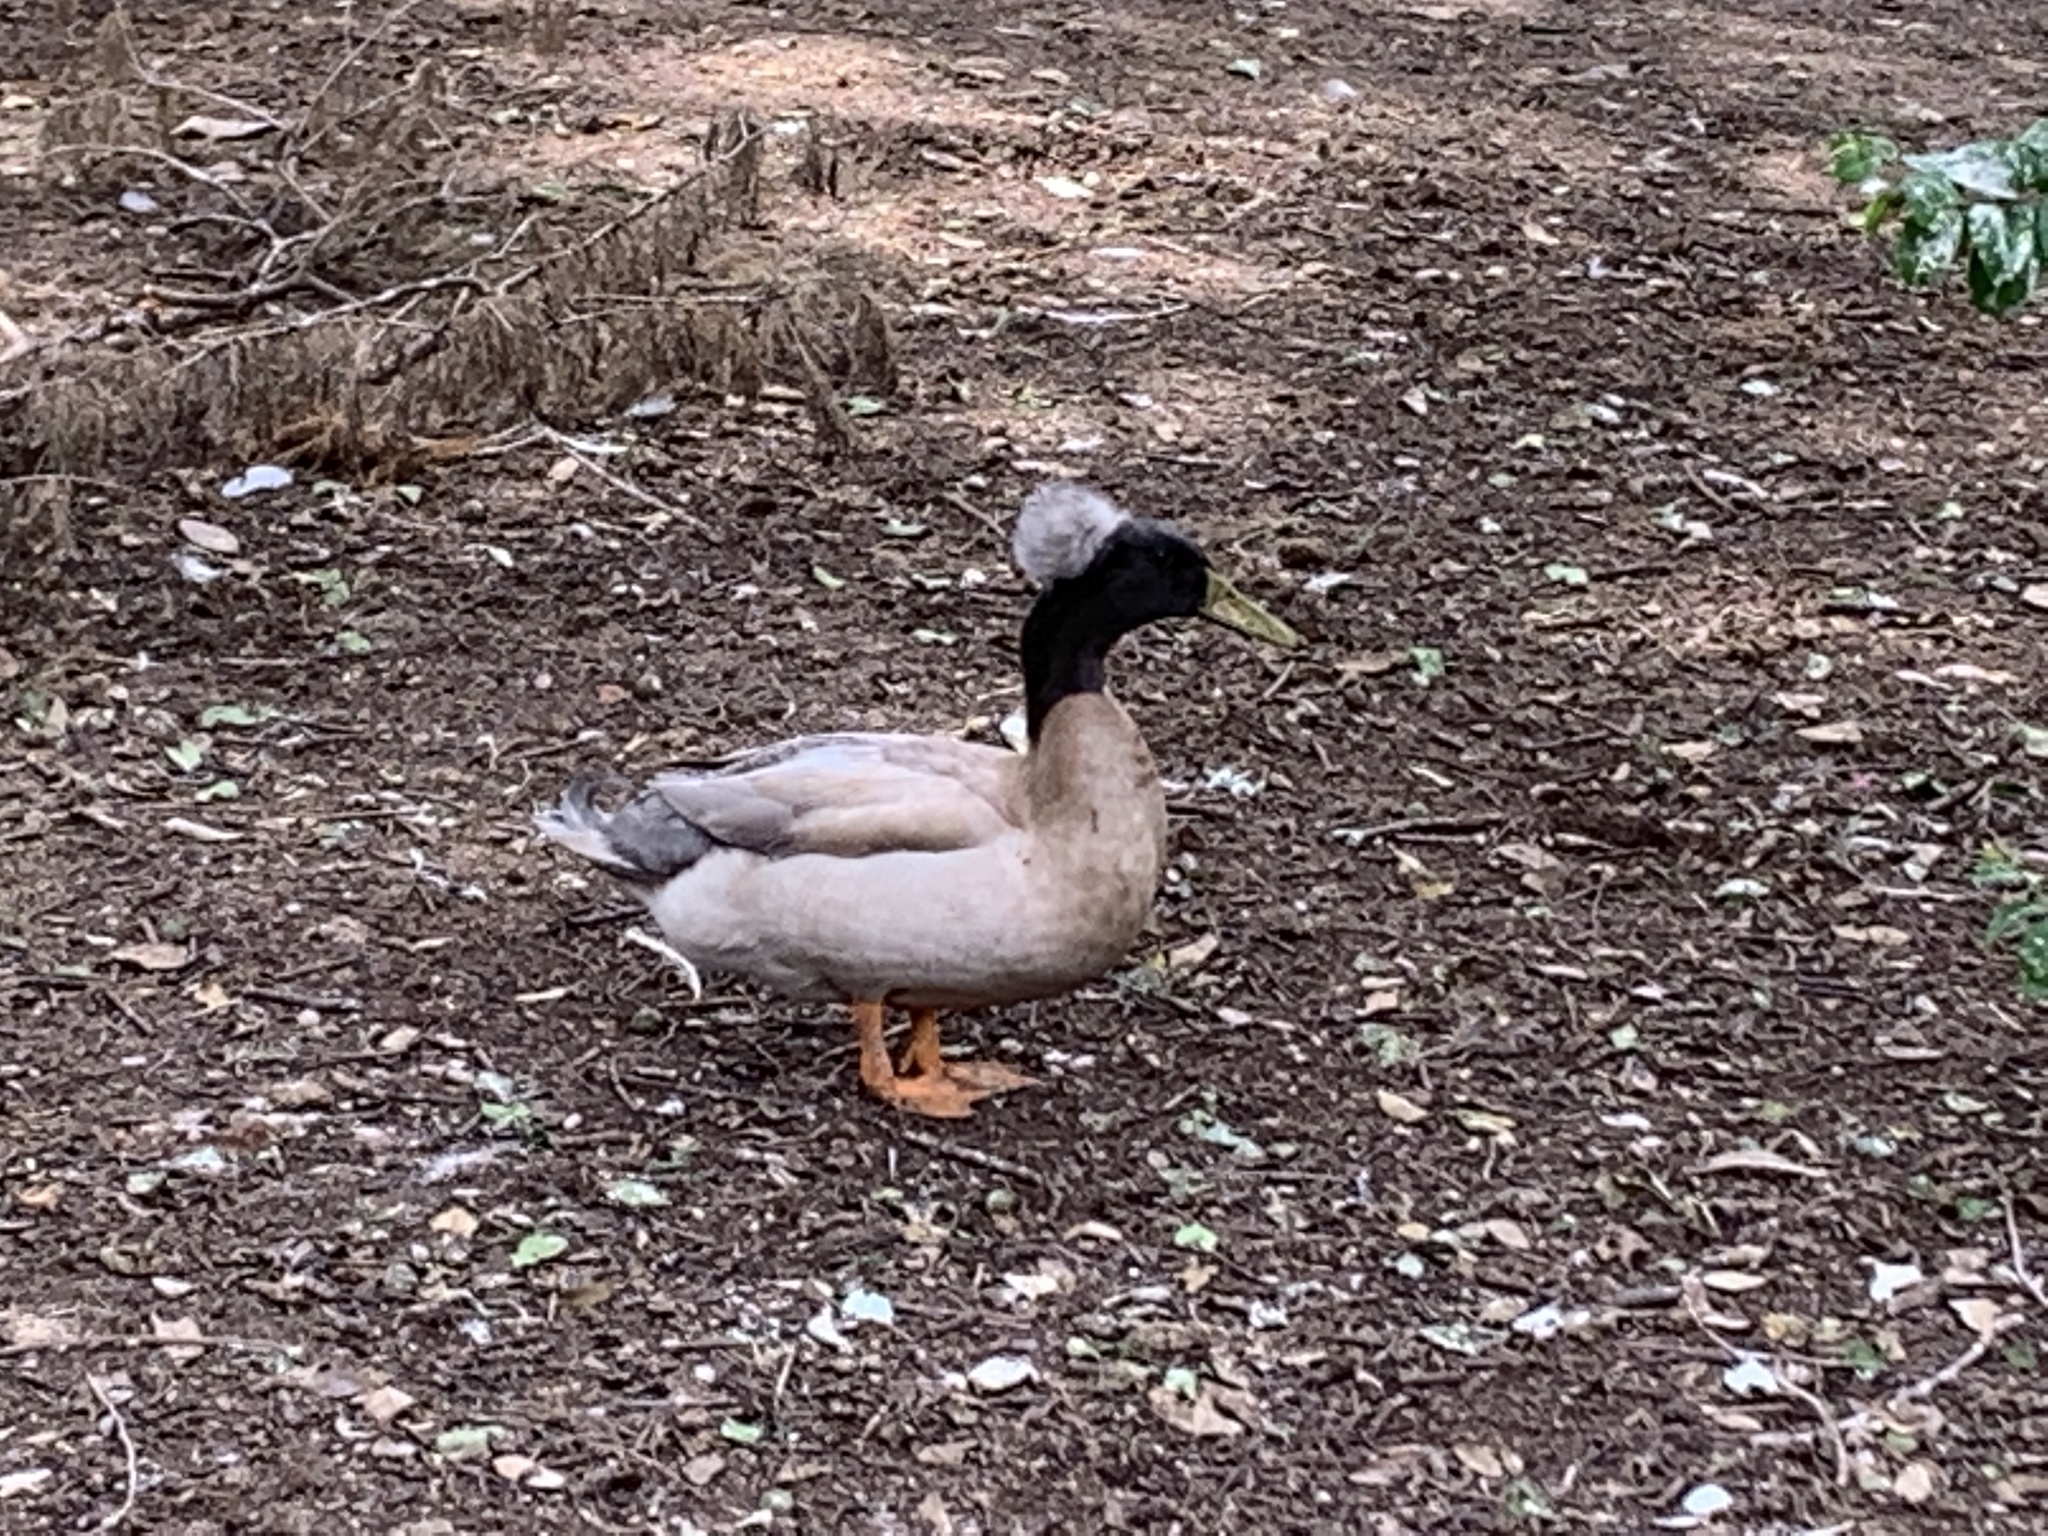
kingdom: Animalia
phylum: Chordata
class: Aves
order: Anseriformes
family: Anatidae
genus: Anas
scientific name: Anas platyrhynchos
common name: Mallard
